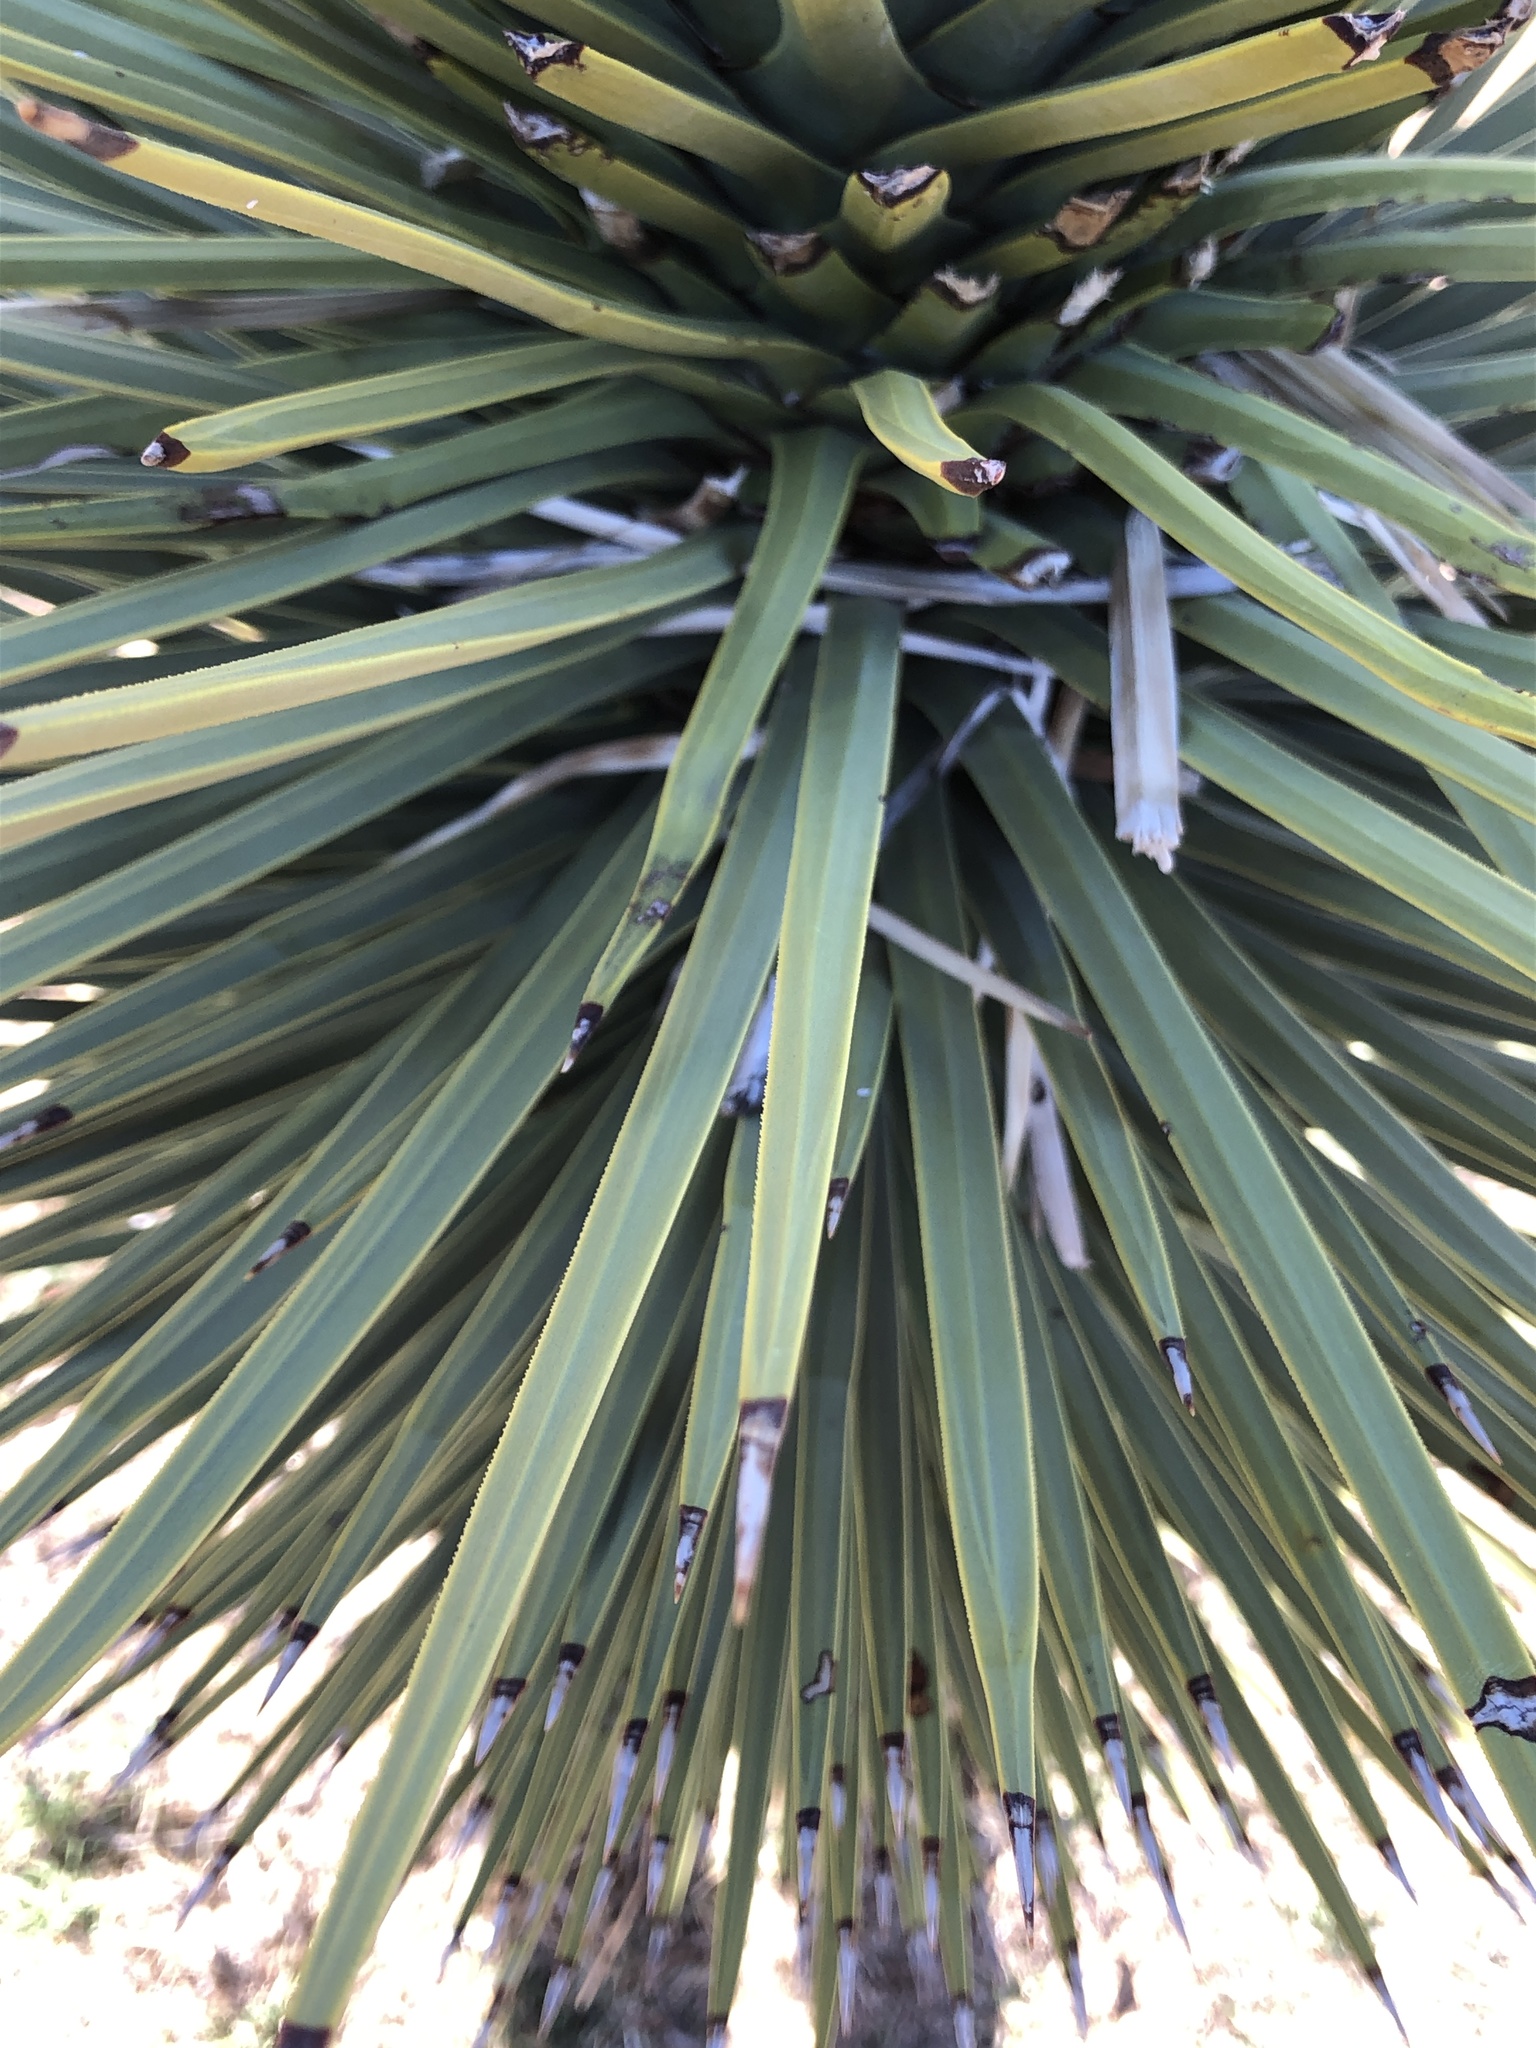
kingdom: Plantae
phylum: Tracheophyta
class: Liliopsida
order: Asparagales
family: Asparagaceae
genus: Yucca
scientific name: Yucca brevifolia
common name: Joshua tree
